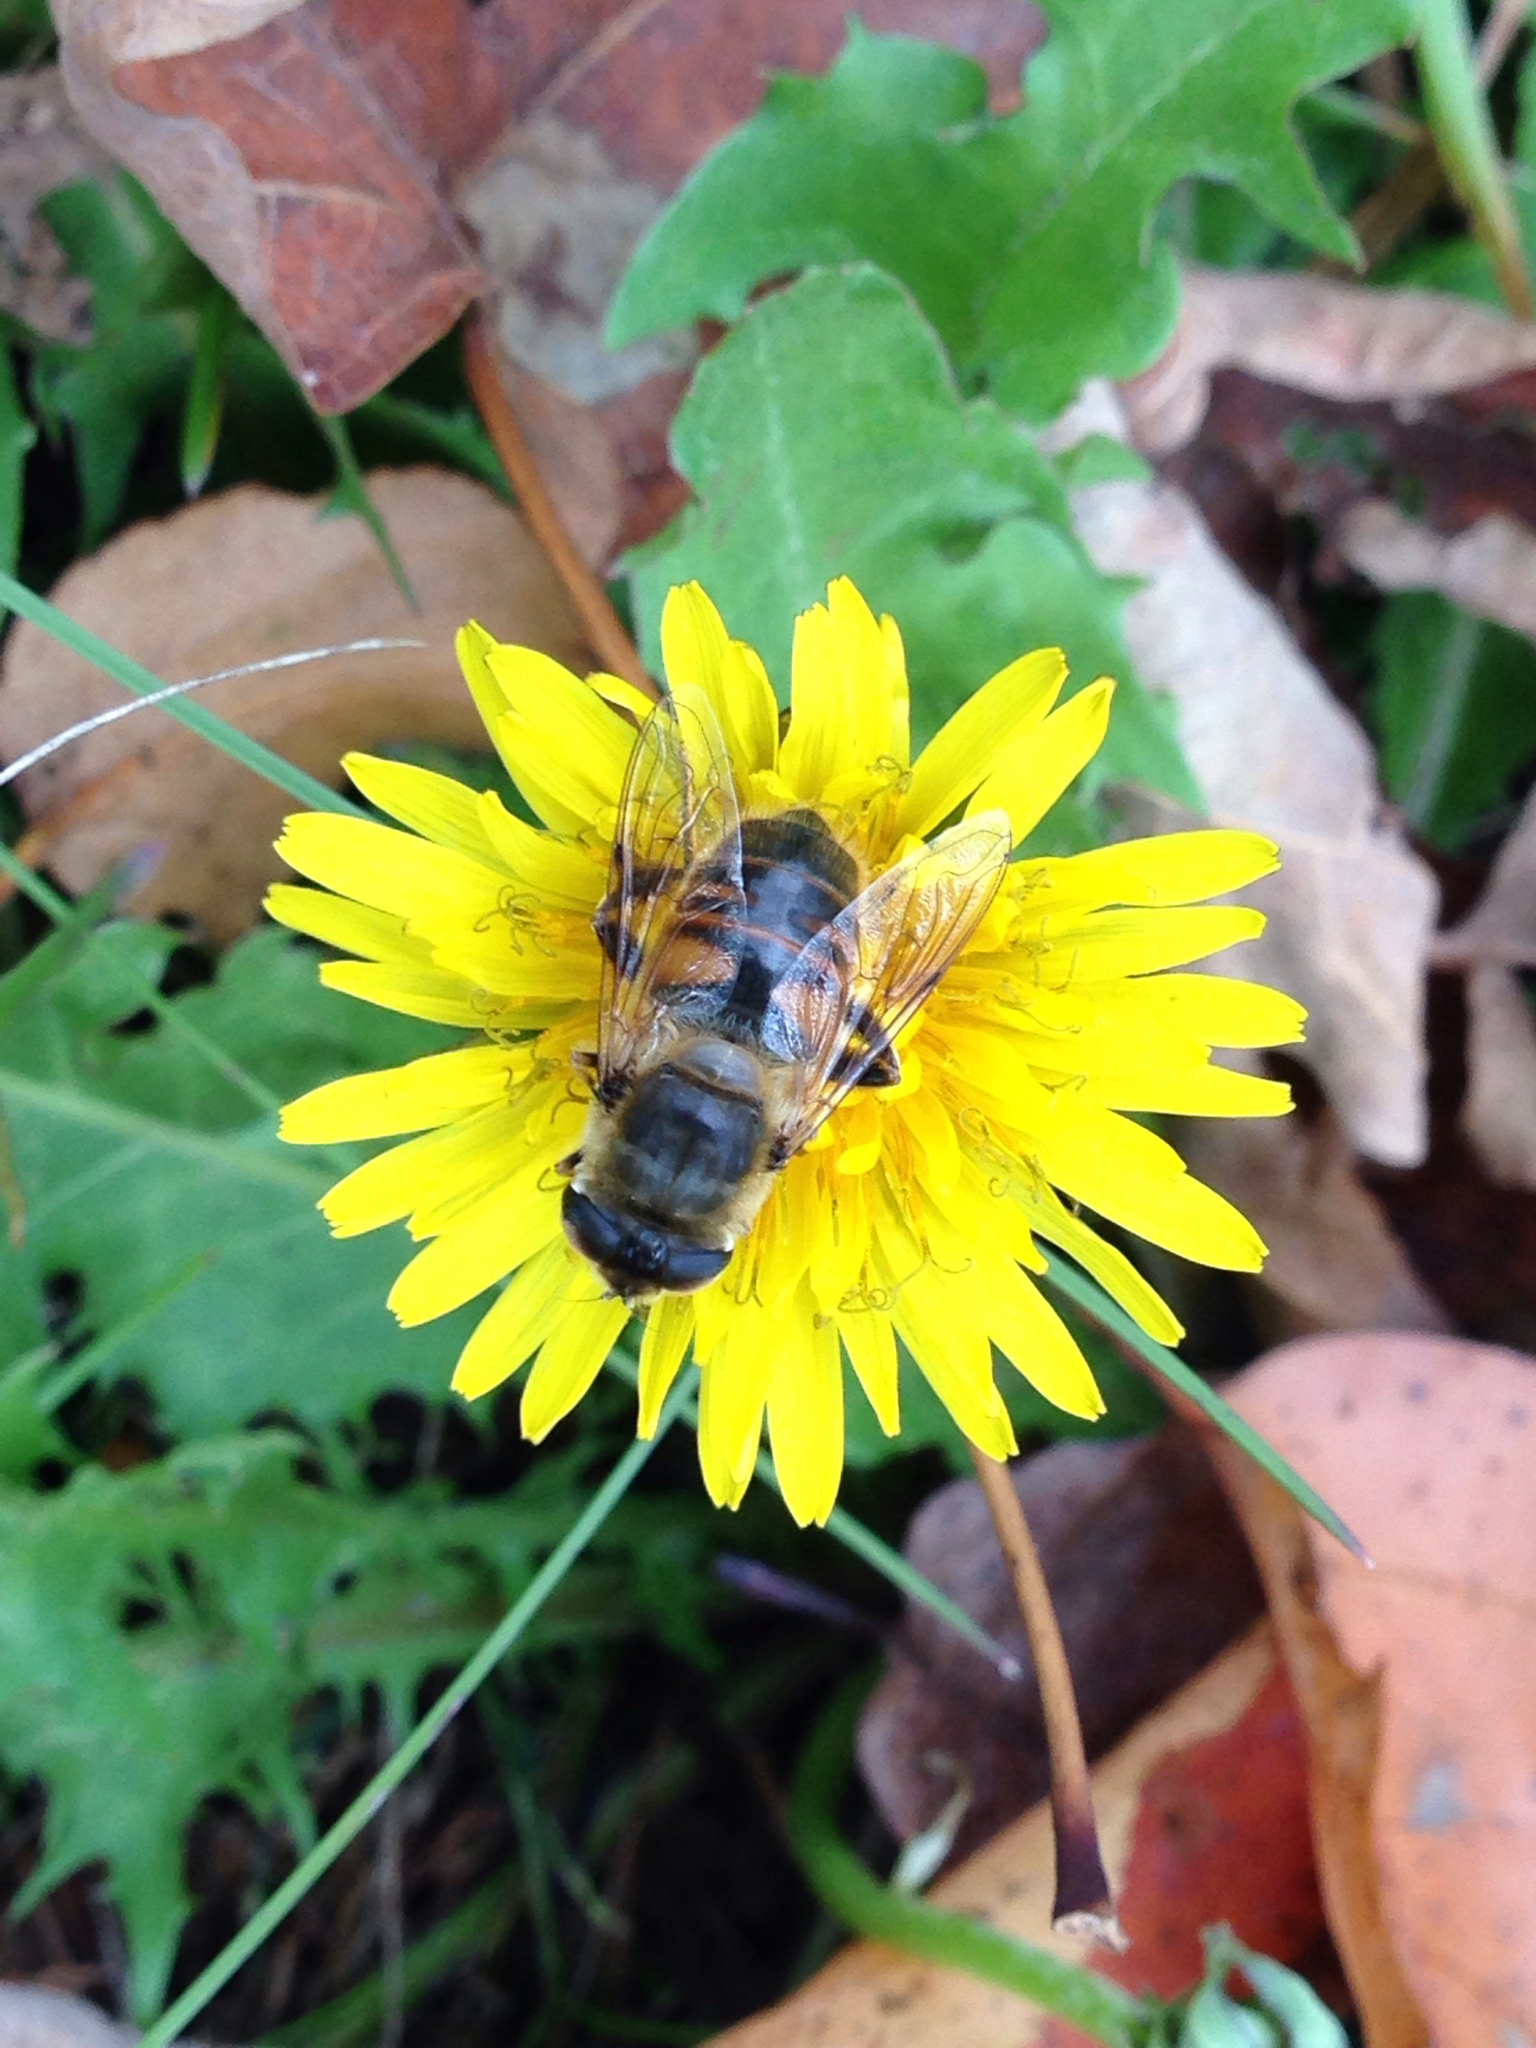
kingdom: Plantae
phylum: Tracheophyta
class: Magnoliopsida
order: Asterales
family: Asteraceae
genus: Taraxacum
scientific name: Taraxacum officinale
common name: Common dandelion
